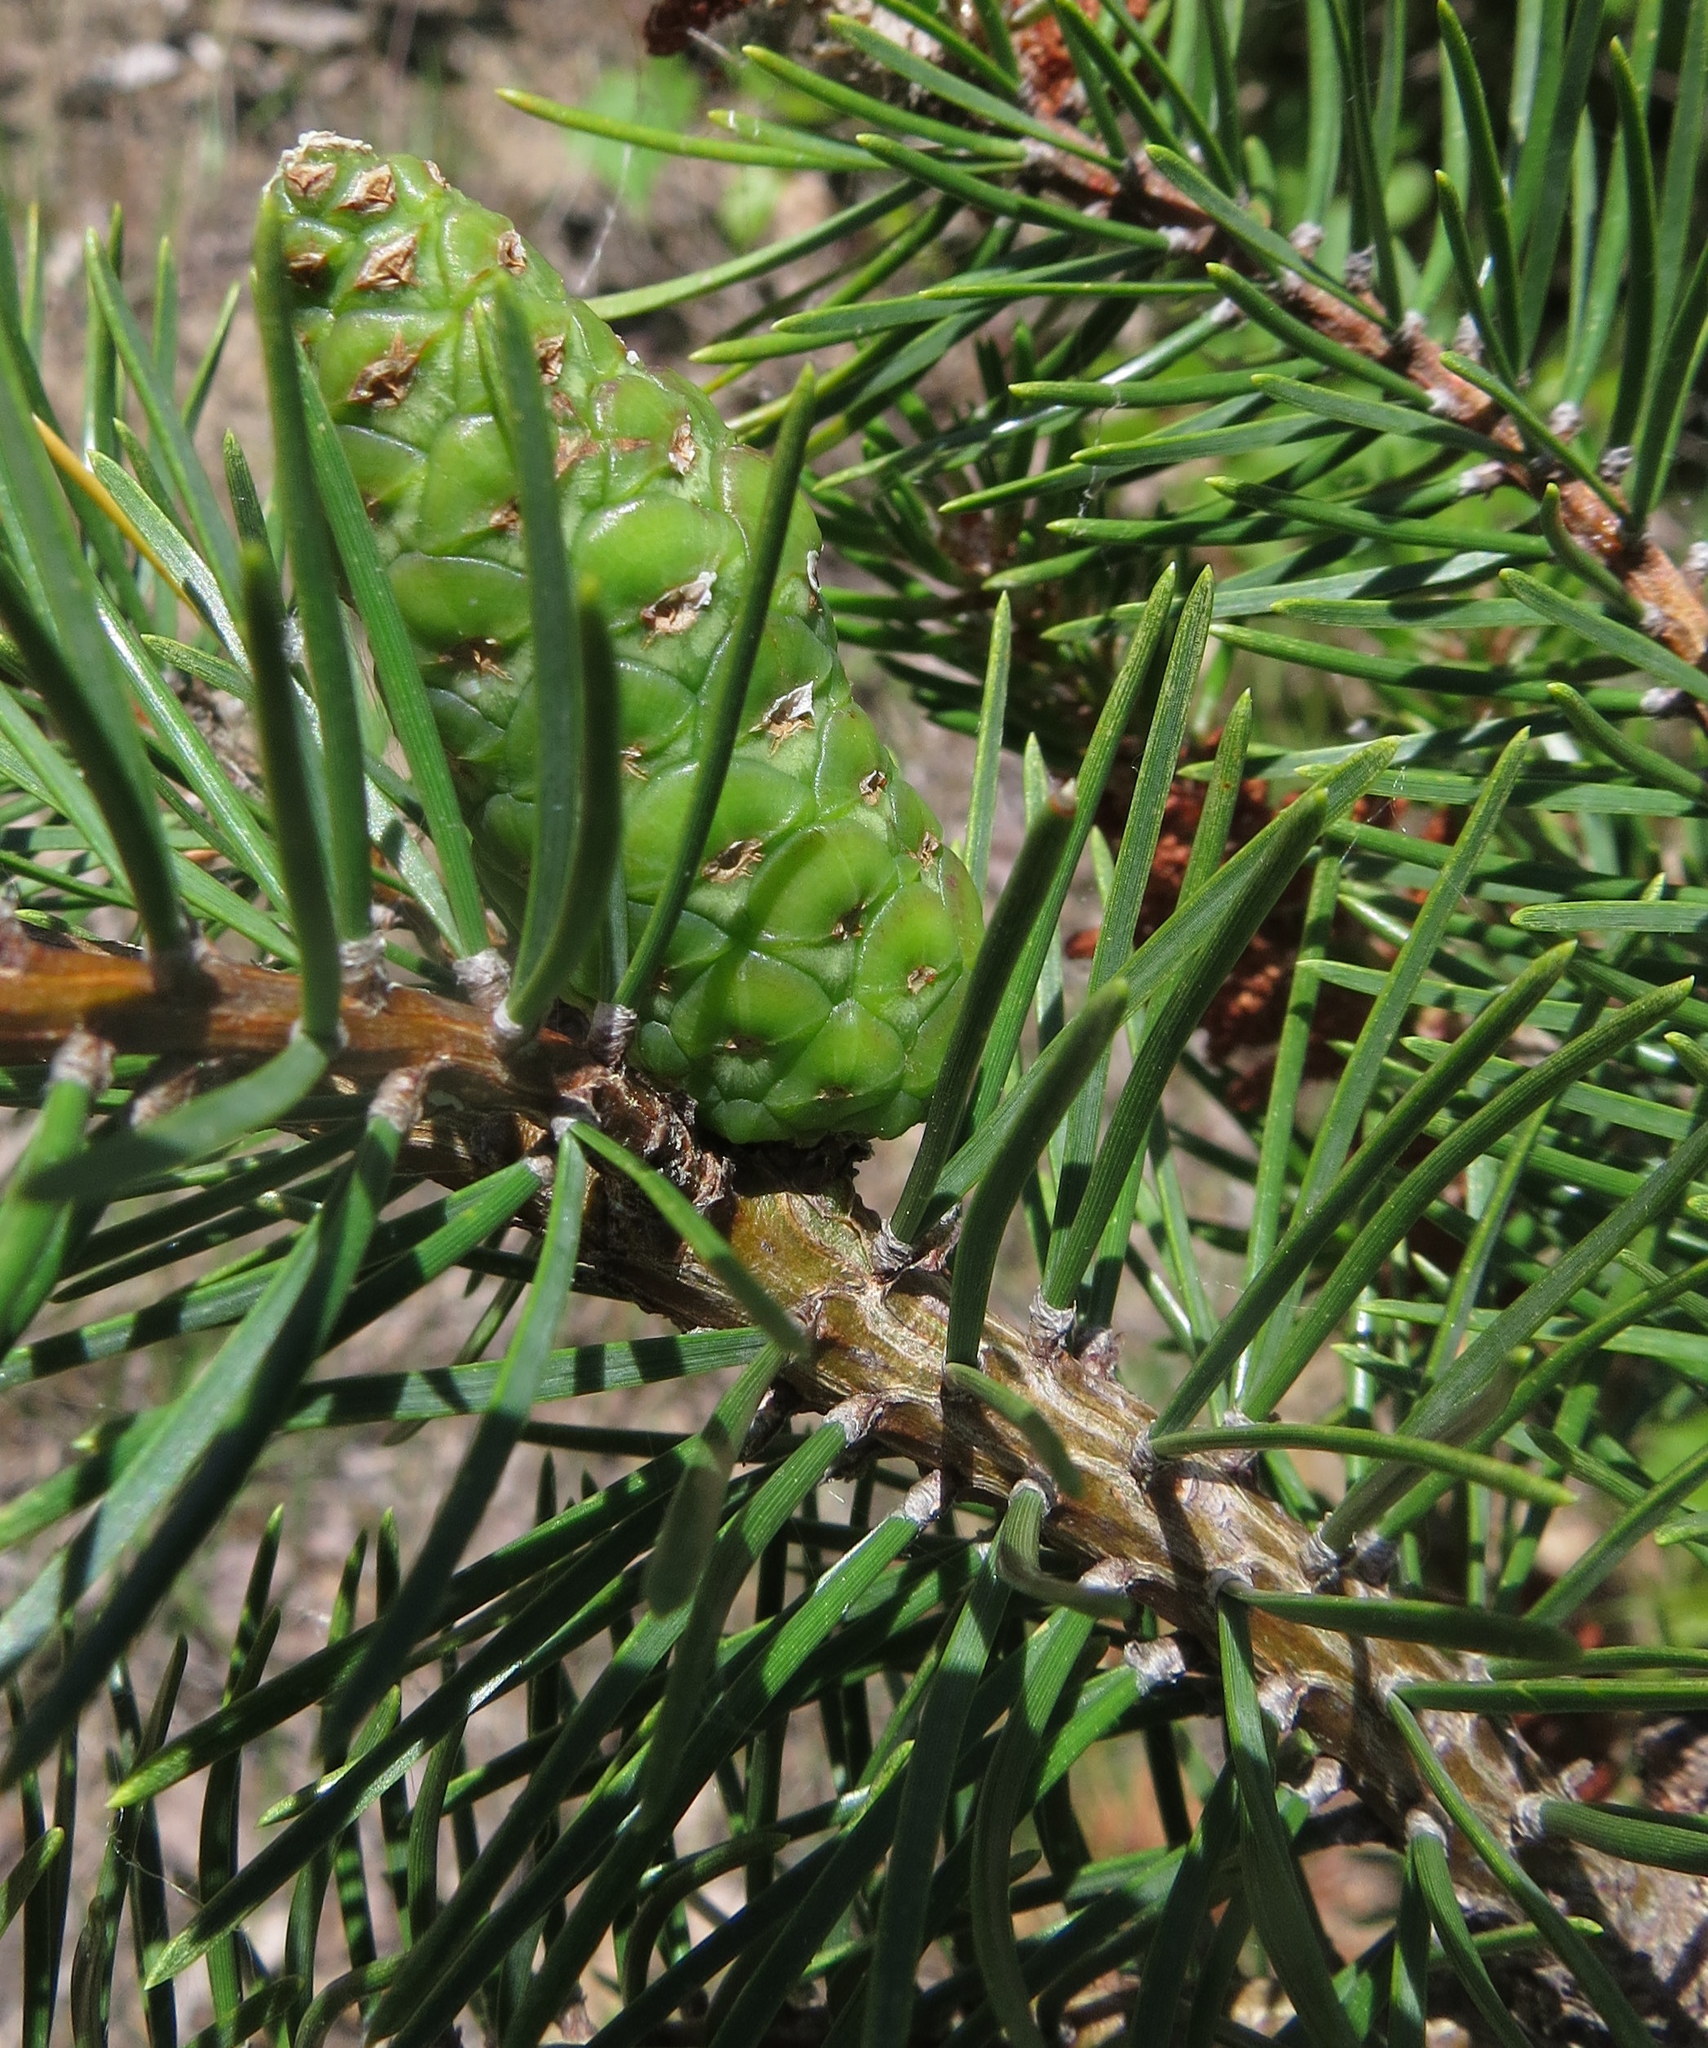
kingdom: Plantae
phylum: Tracheophyta
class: Pinopsida
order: Pinales
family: Pinaceae
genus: Pinus
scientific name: Pinus banksiana
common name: Jack pine
